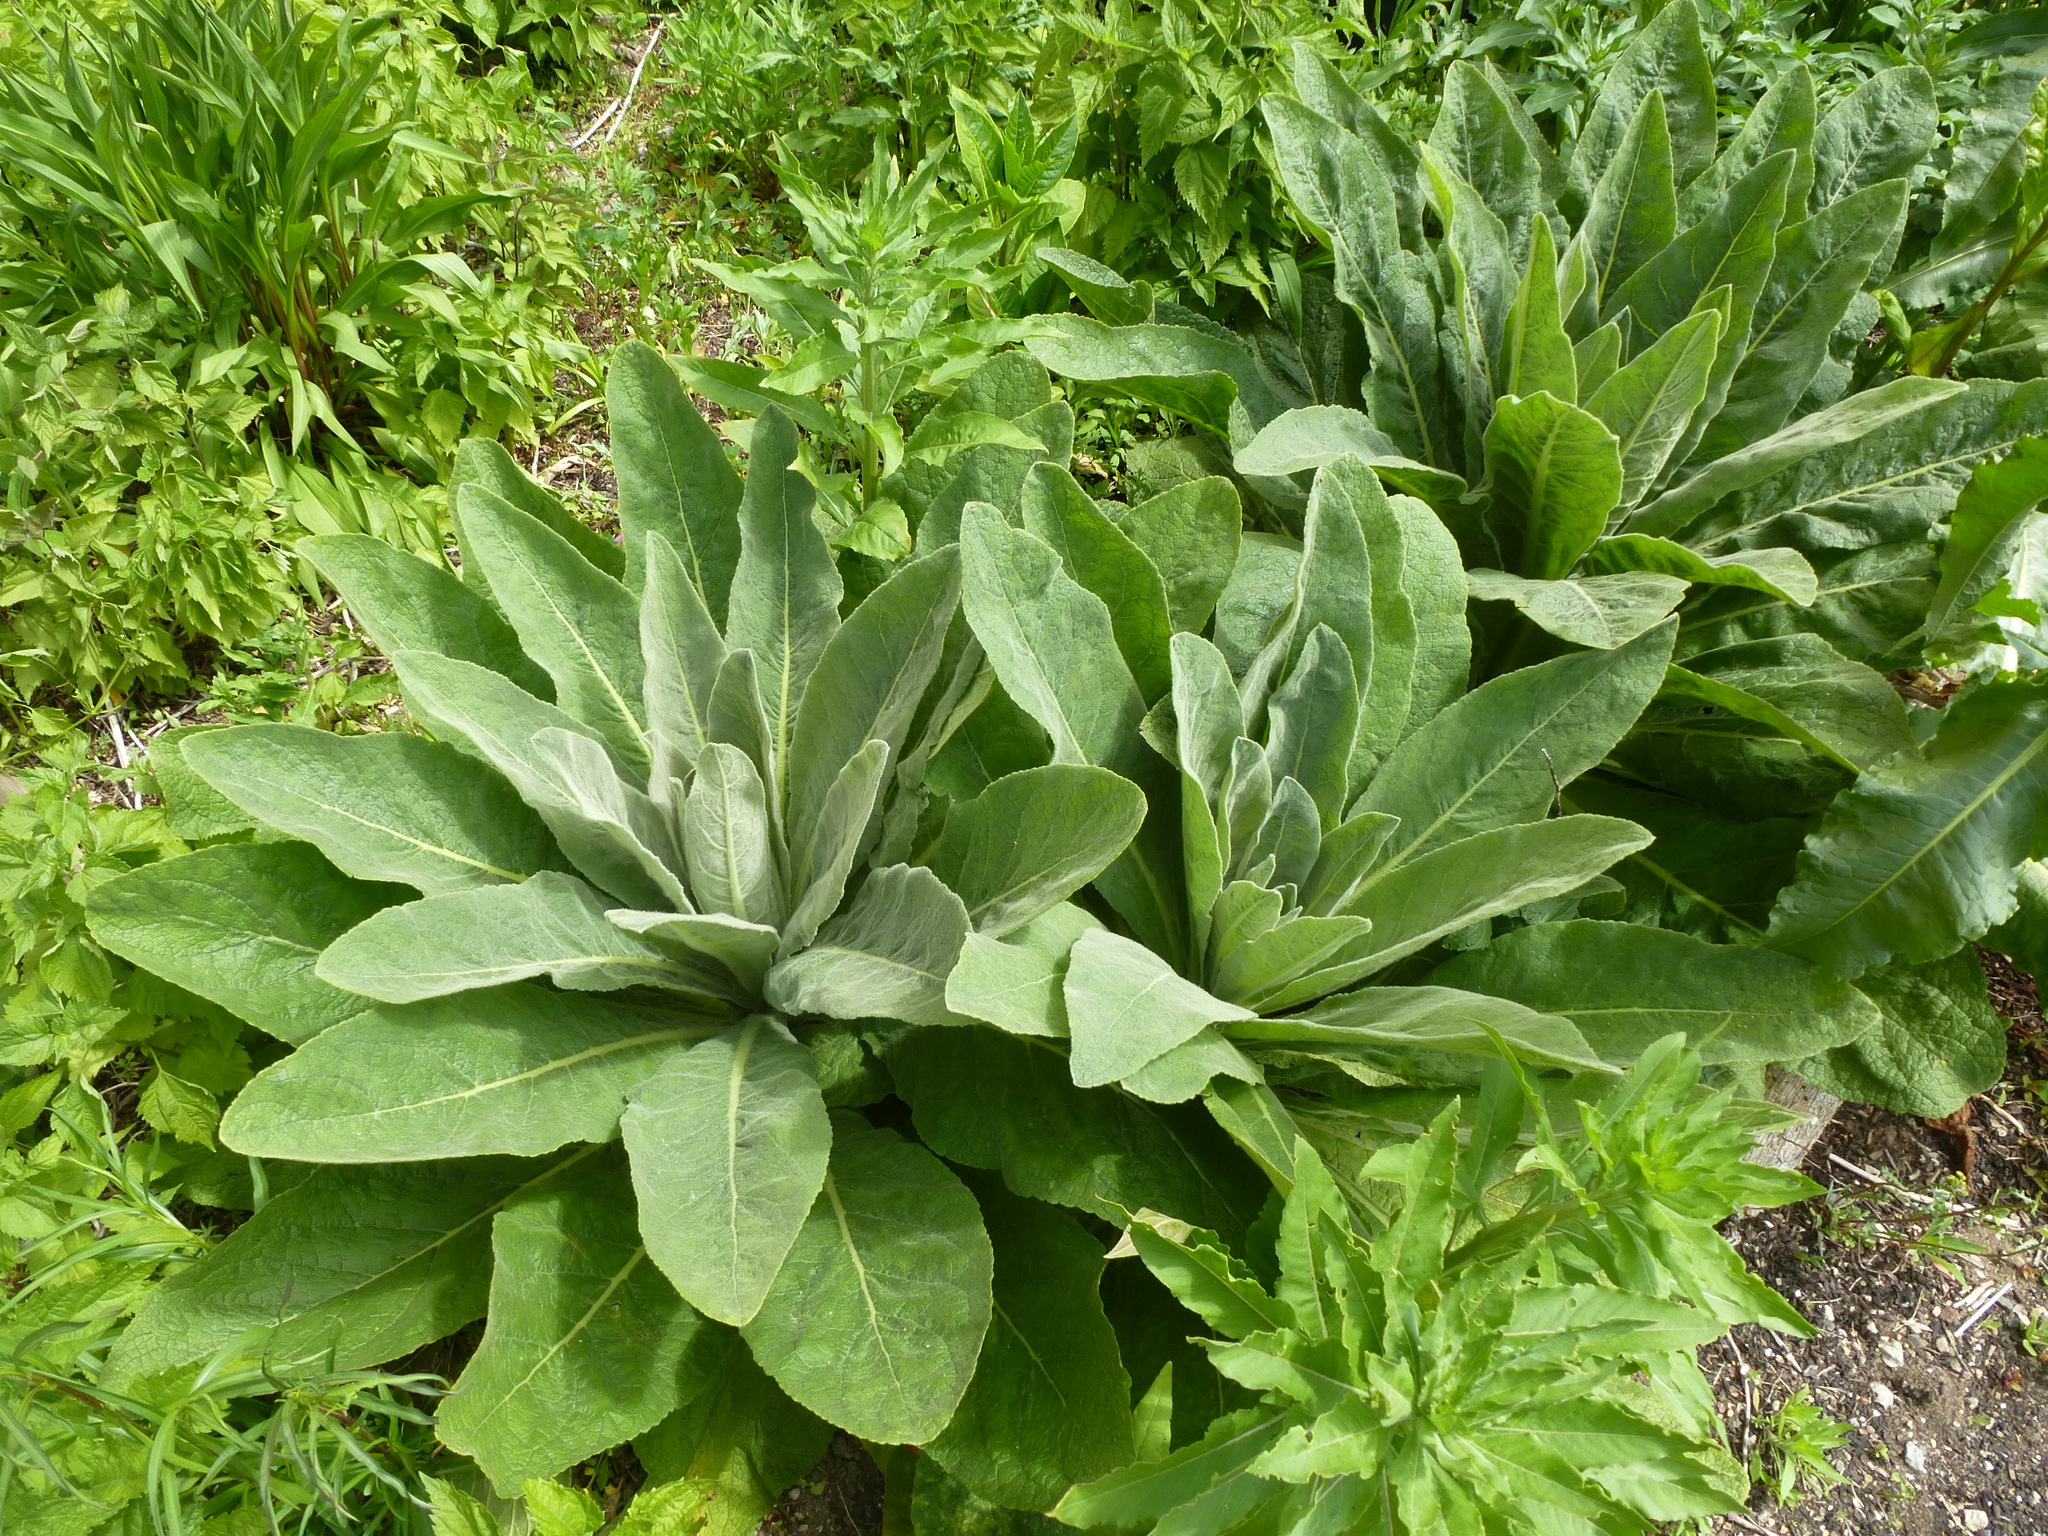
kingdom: Plantae
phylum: Tracheophyta
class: Magnoliopsida
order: Lamiales
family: Scrophulariaceae
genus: Verbascum
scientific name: Verbascum thapsus
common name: Common mullein
